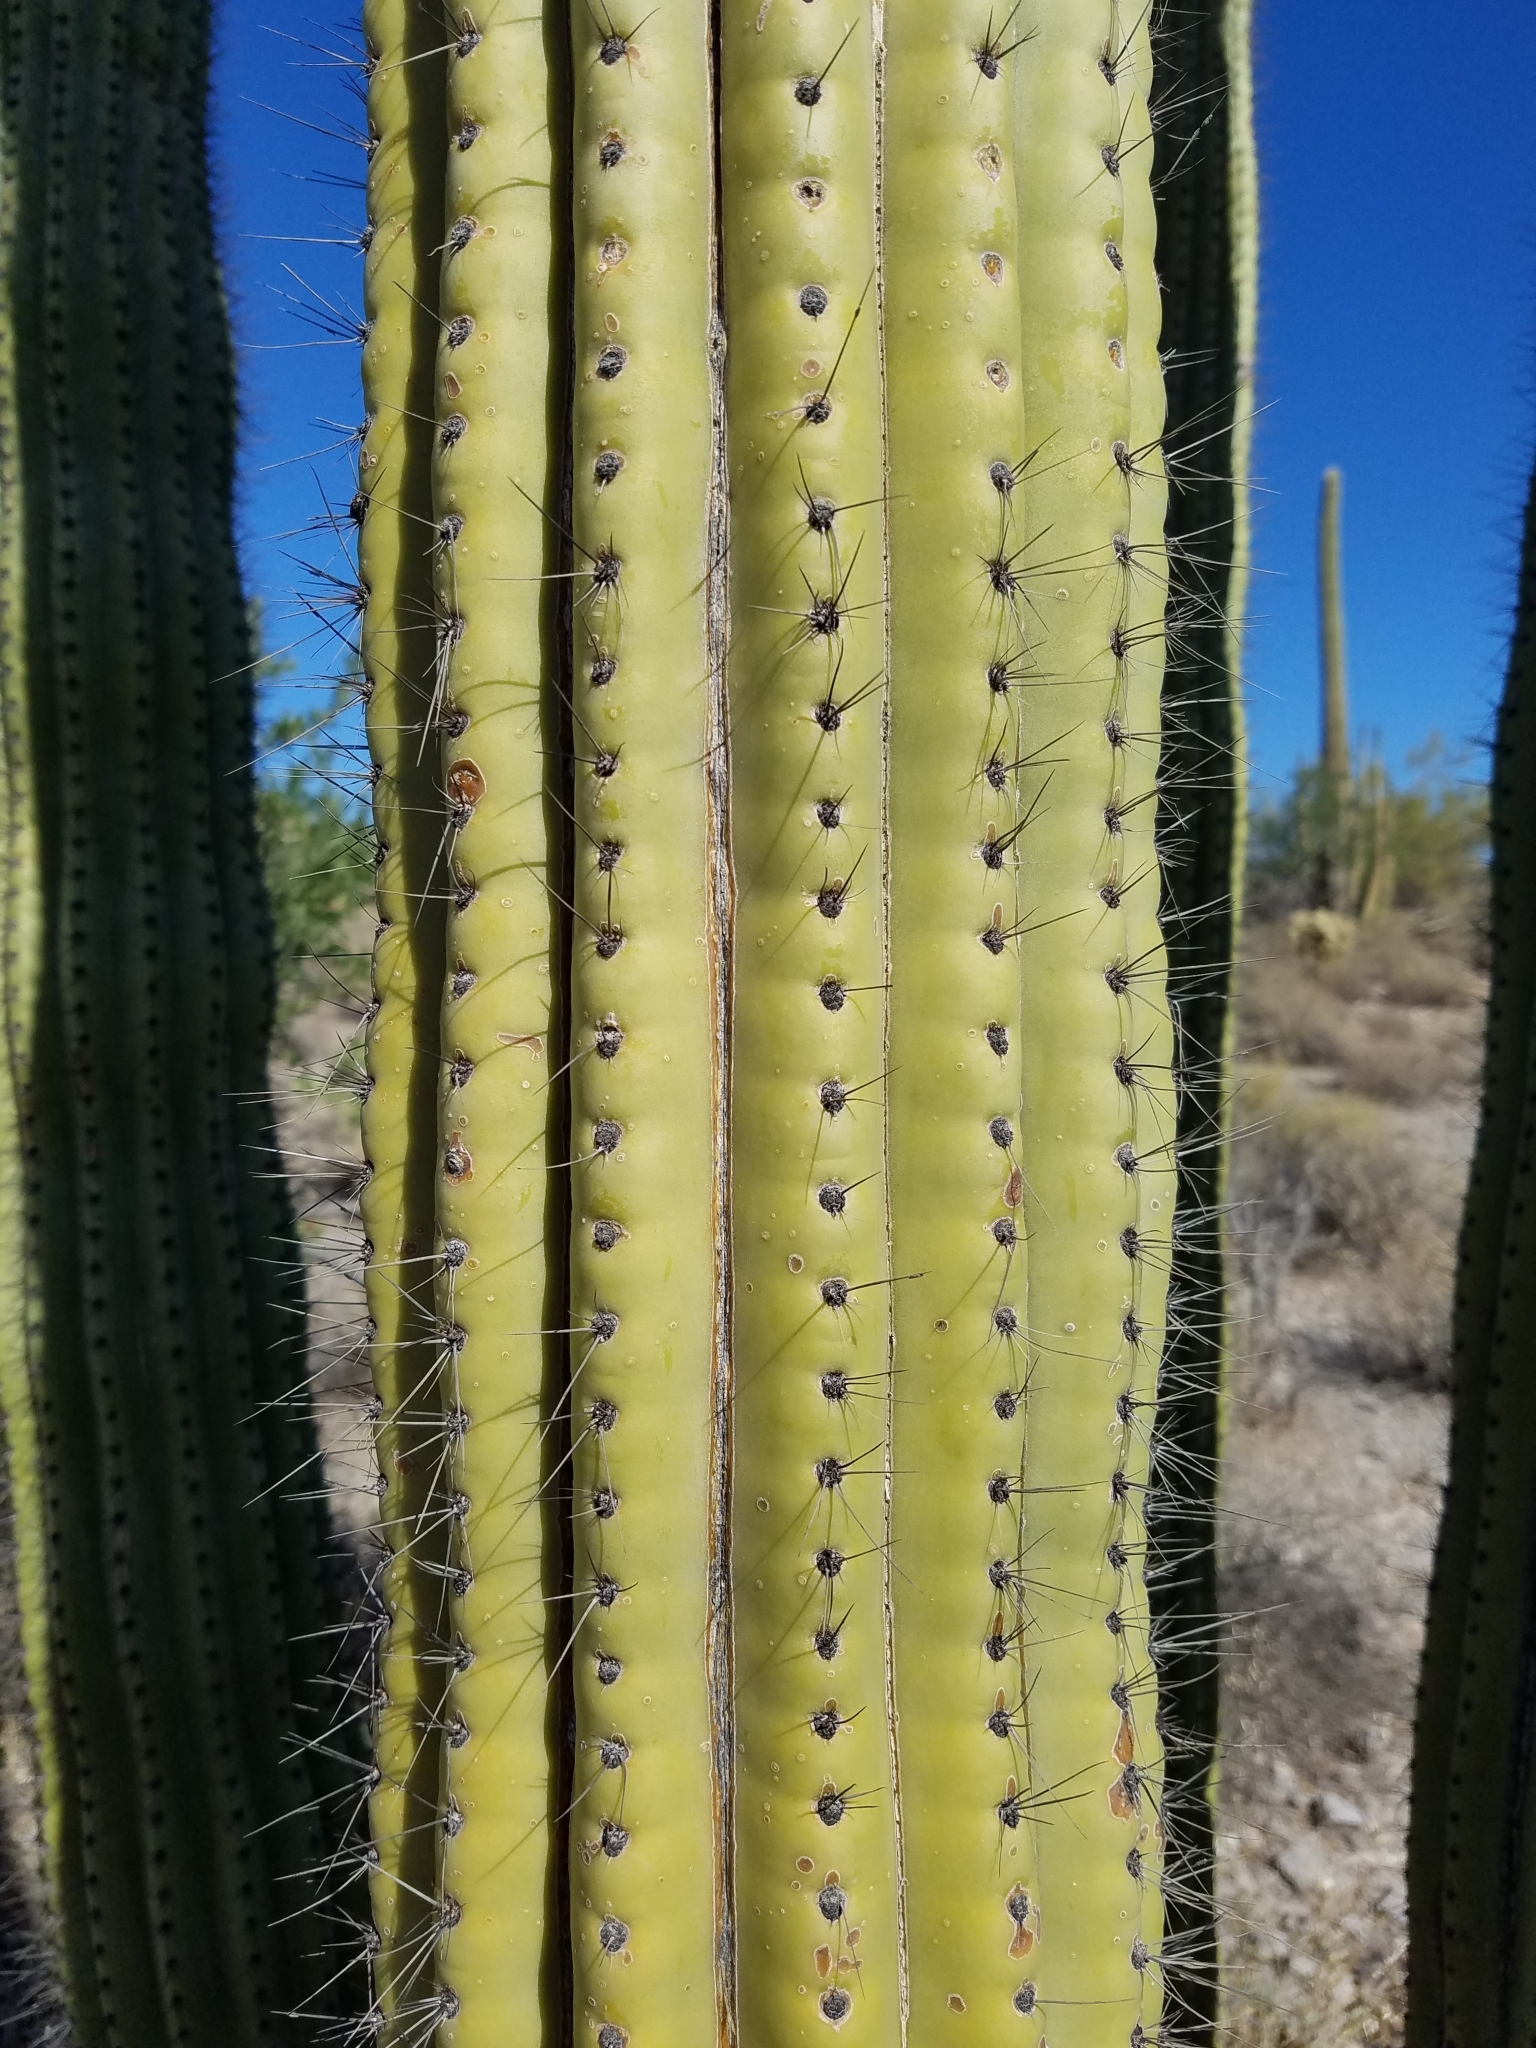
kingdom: Plantae
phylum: Tracheophyta
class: Magnoliopsida
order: Caryophyllales
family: Cactaceae
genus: Stenocereus
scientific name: Stenocereus thurberi
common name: Organ pipe cactus
